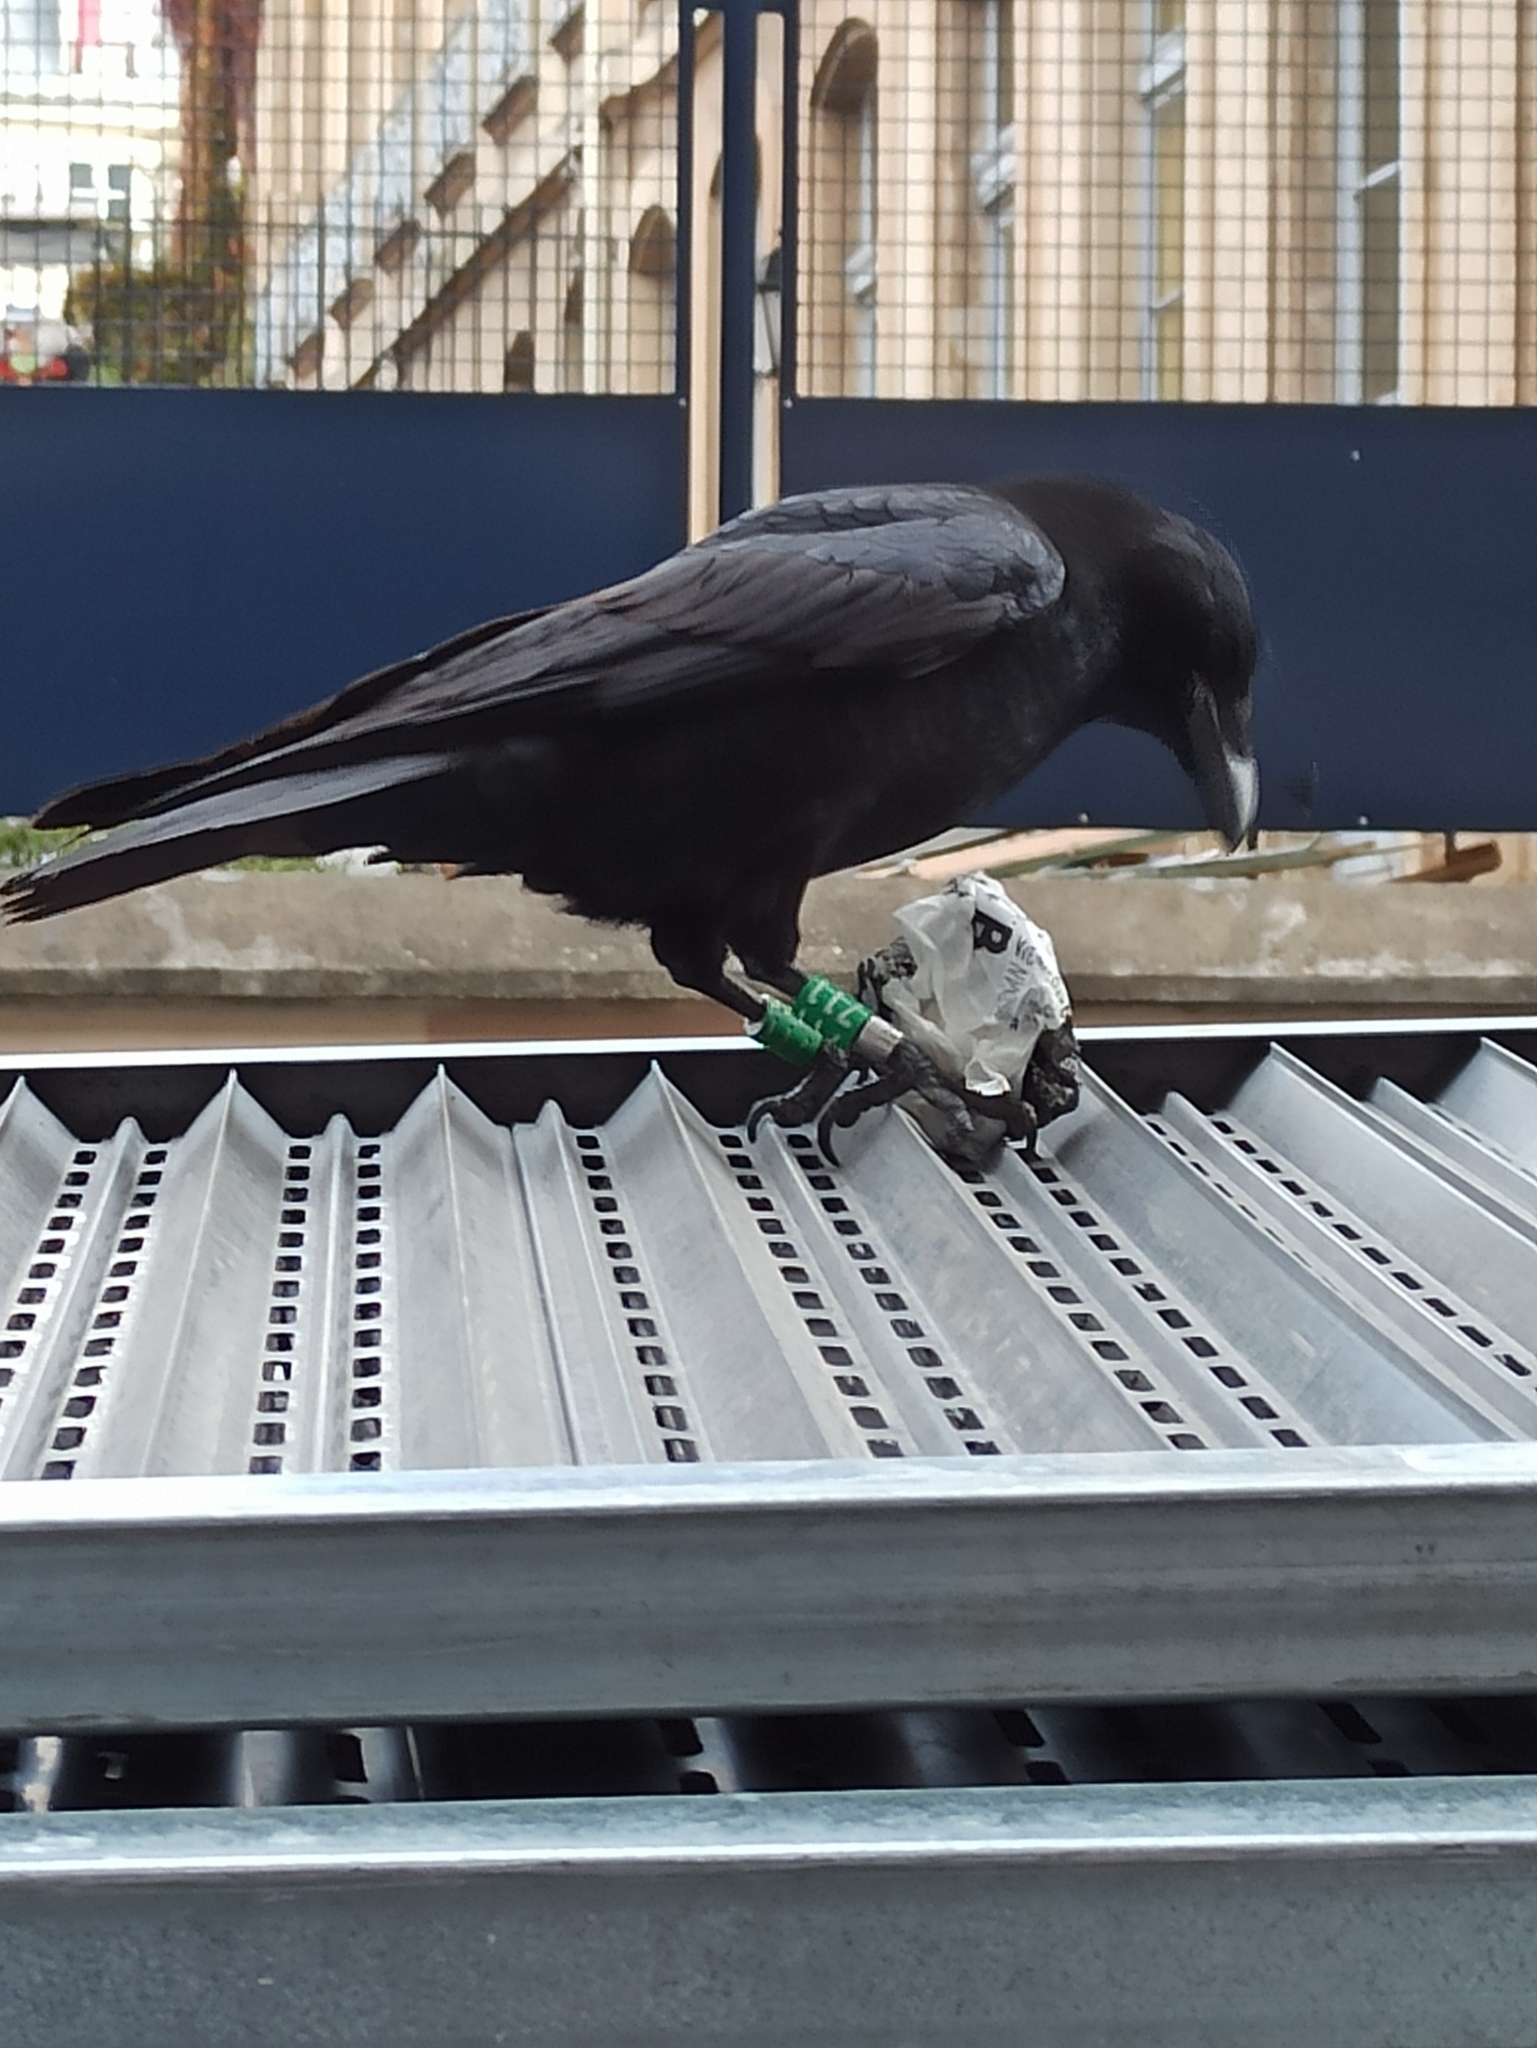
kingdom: Animalia
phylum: Chordata
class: Aves
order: Passeriformes
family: Corvidae
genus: Corvus
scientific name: Corvus corone
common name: Carrion crow
